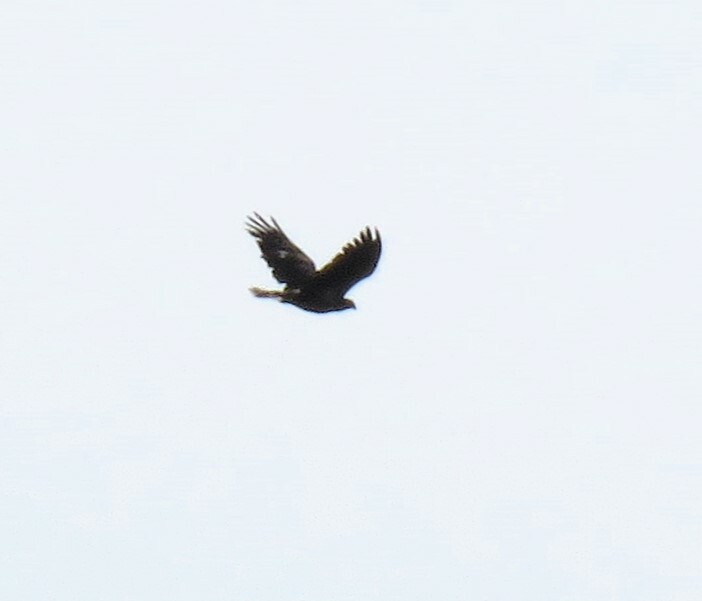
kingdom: Animalia
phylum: Chordata
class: Aves
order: Accipitriformes
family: Accipitridae
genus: Haliaeetus
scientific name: Haliaeetus leucocephalus
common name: Bald eagle
